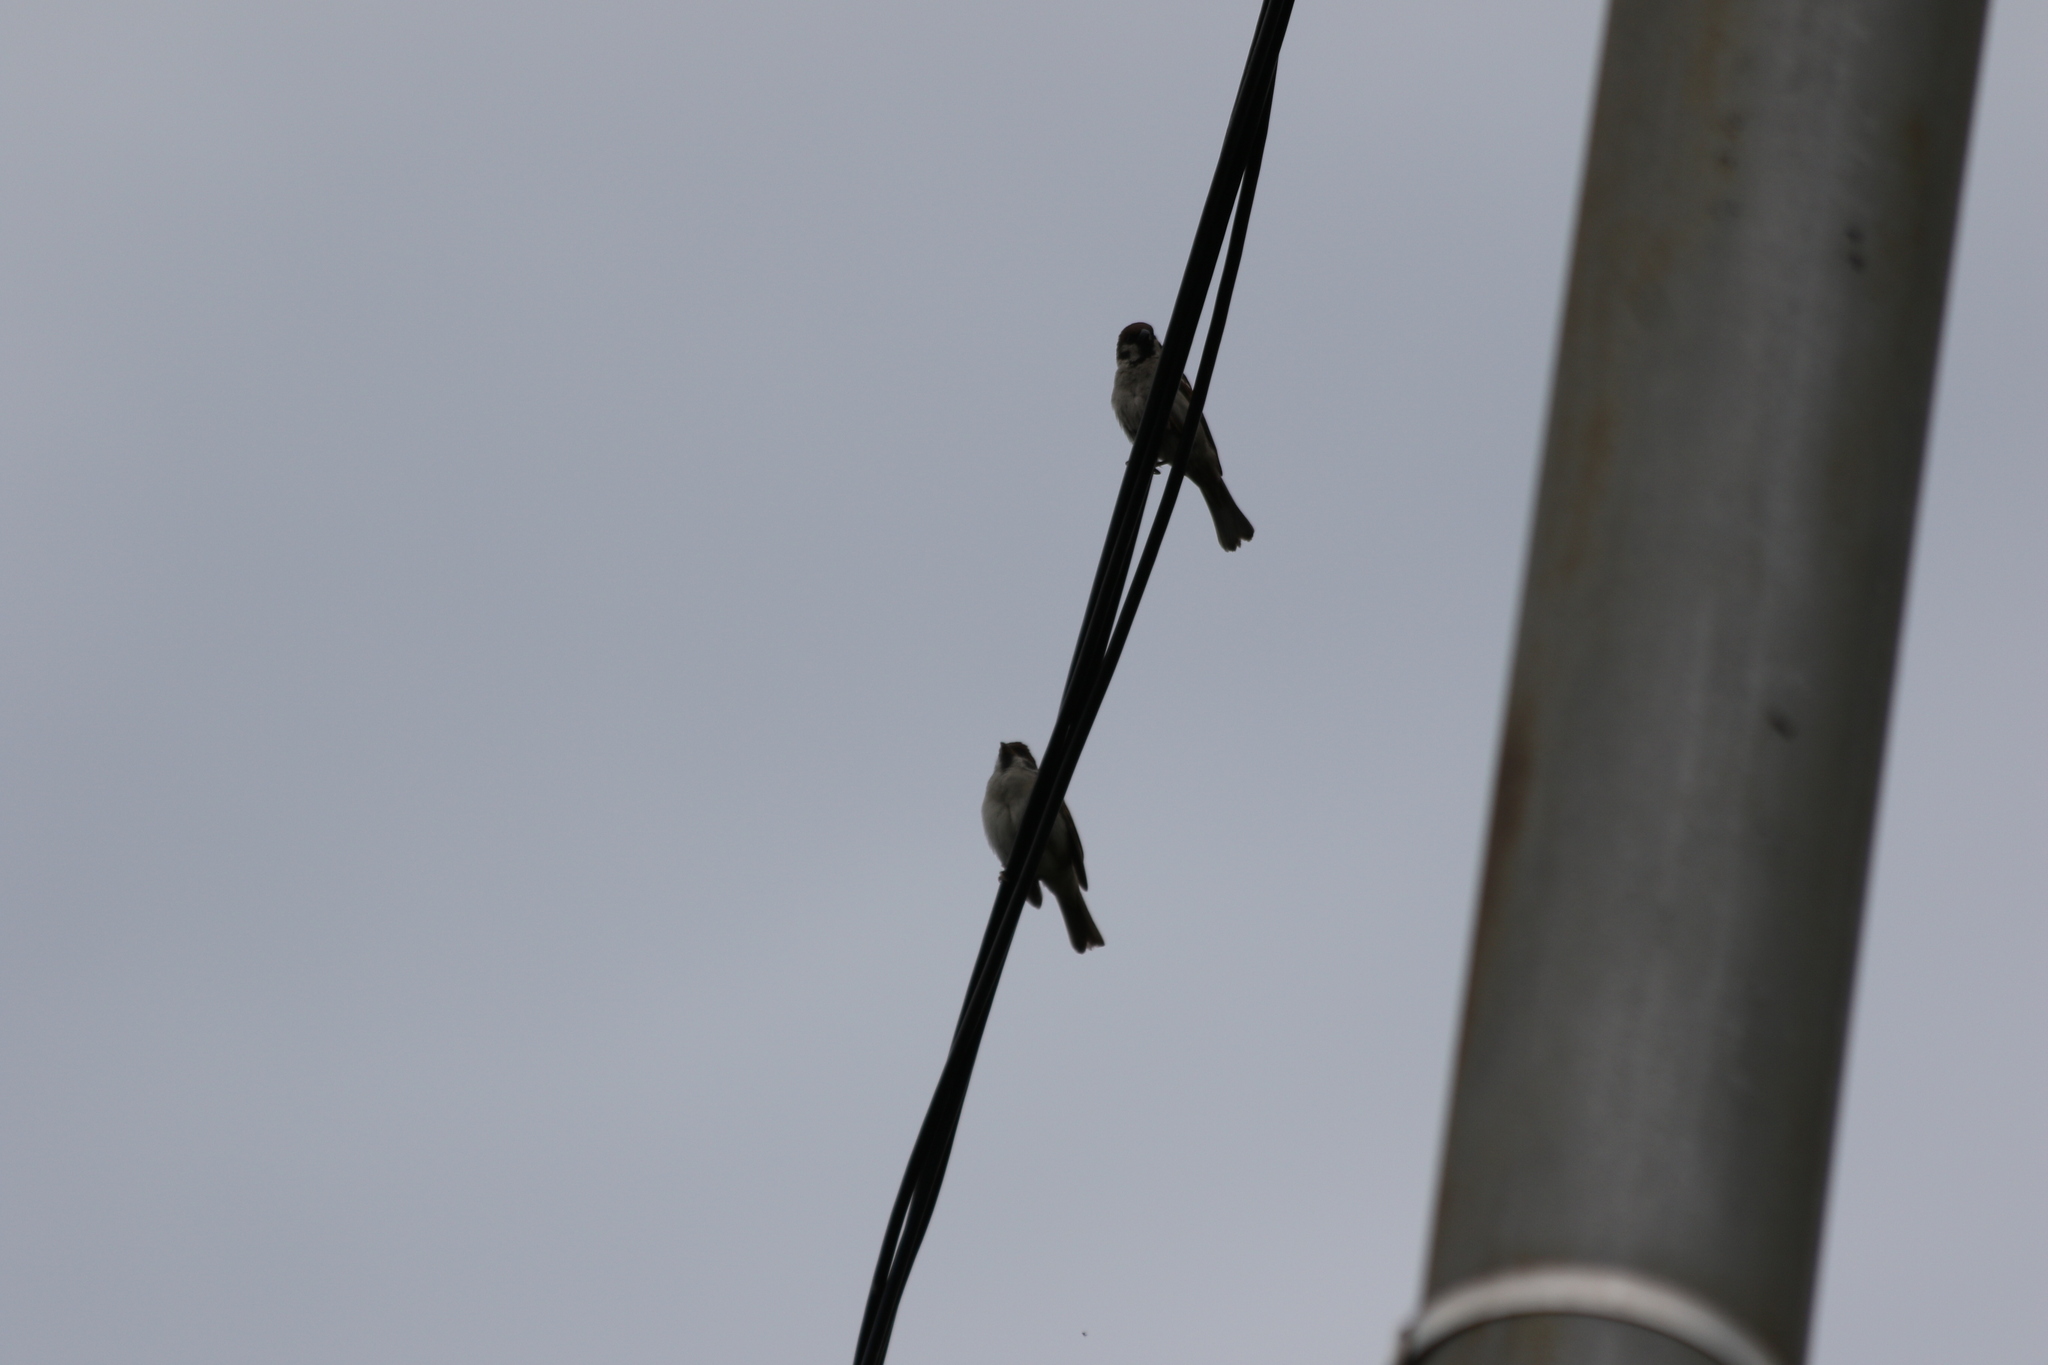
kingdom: Animalia
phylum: Chordata
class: Aves
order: Passeriformes
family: Passeridae
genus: Passer
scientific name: Passer montanus
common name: Eurasian tree sparrow
